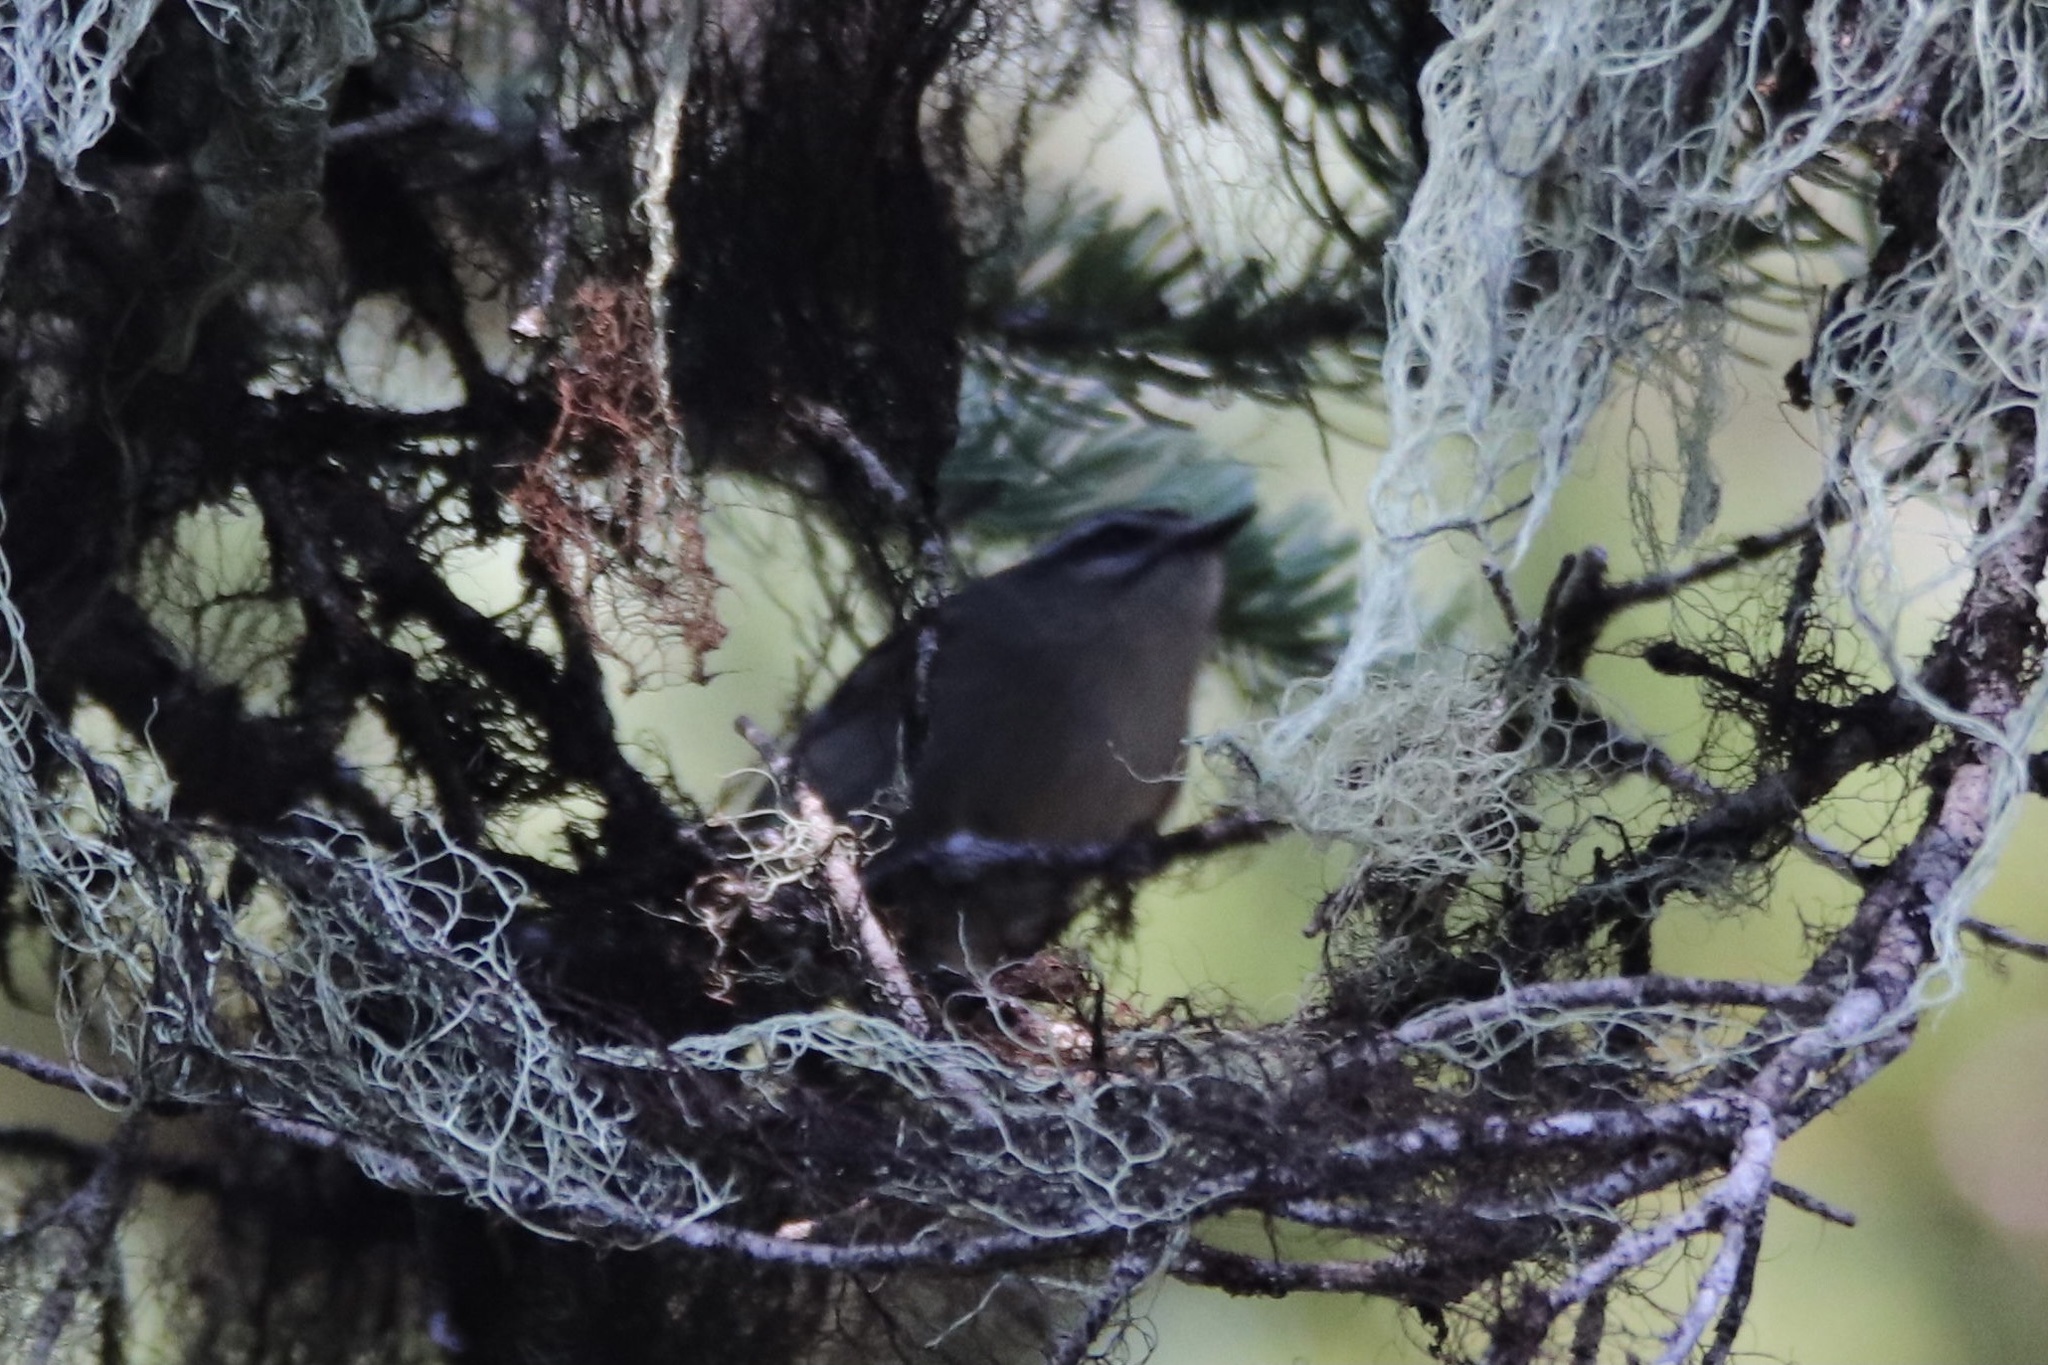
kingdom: Animalia
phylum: Chordata
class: Aves
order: Passeriformes
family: Regulidae
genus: Regulus
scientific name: Regulus satrapa
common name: Golden-crowned kinglet
